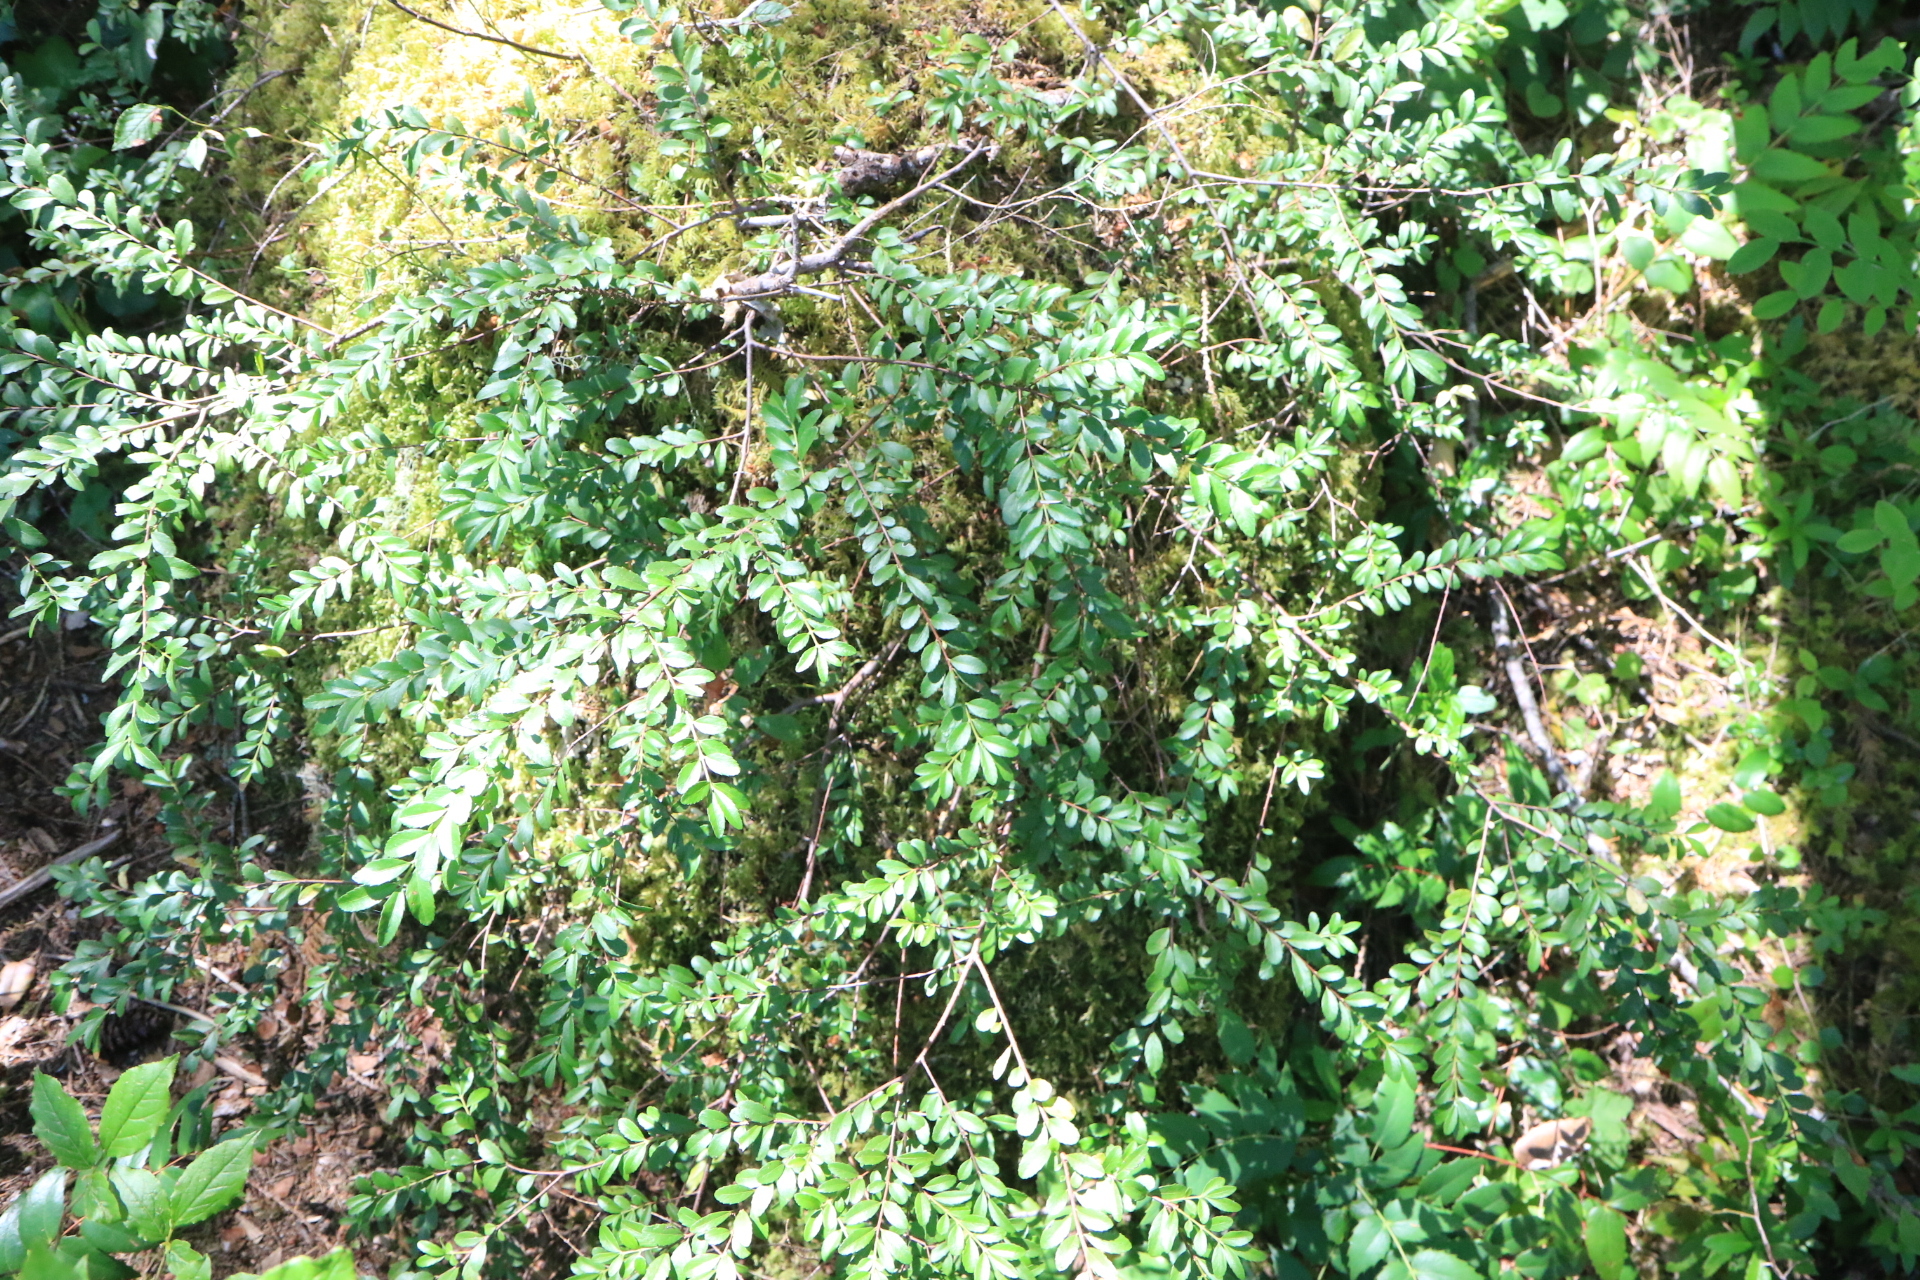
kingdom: Plantae
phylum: Tracheophyta
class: Magnoliopsida
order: Celastrales
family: Celastraceae
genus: Paxistima
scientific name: Paxistima myrsinites
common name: Mountain-lover
